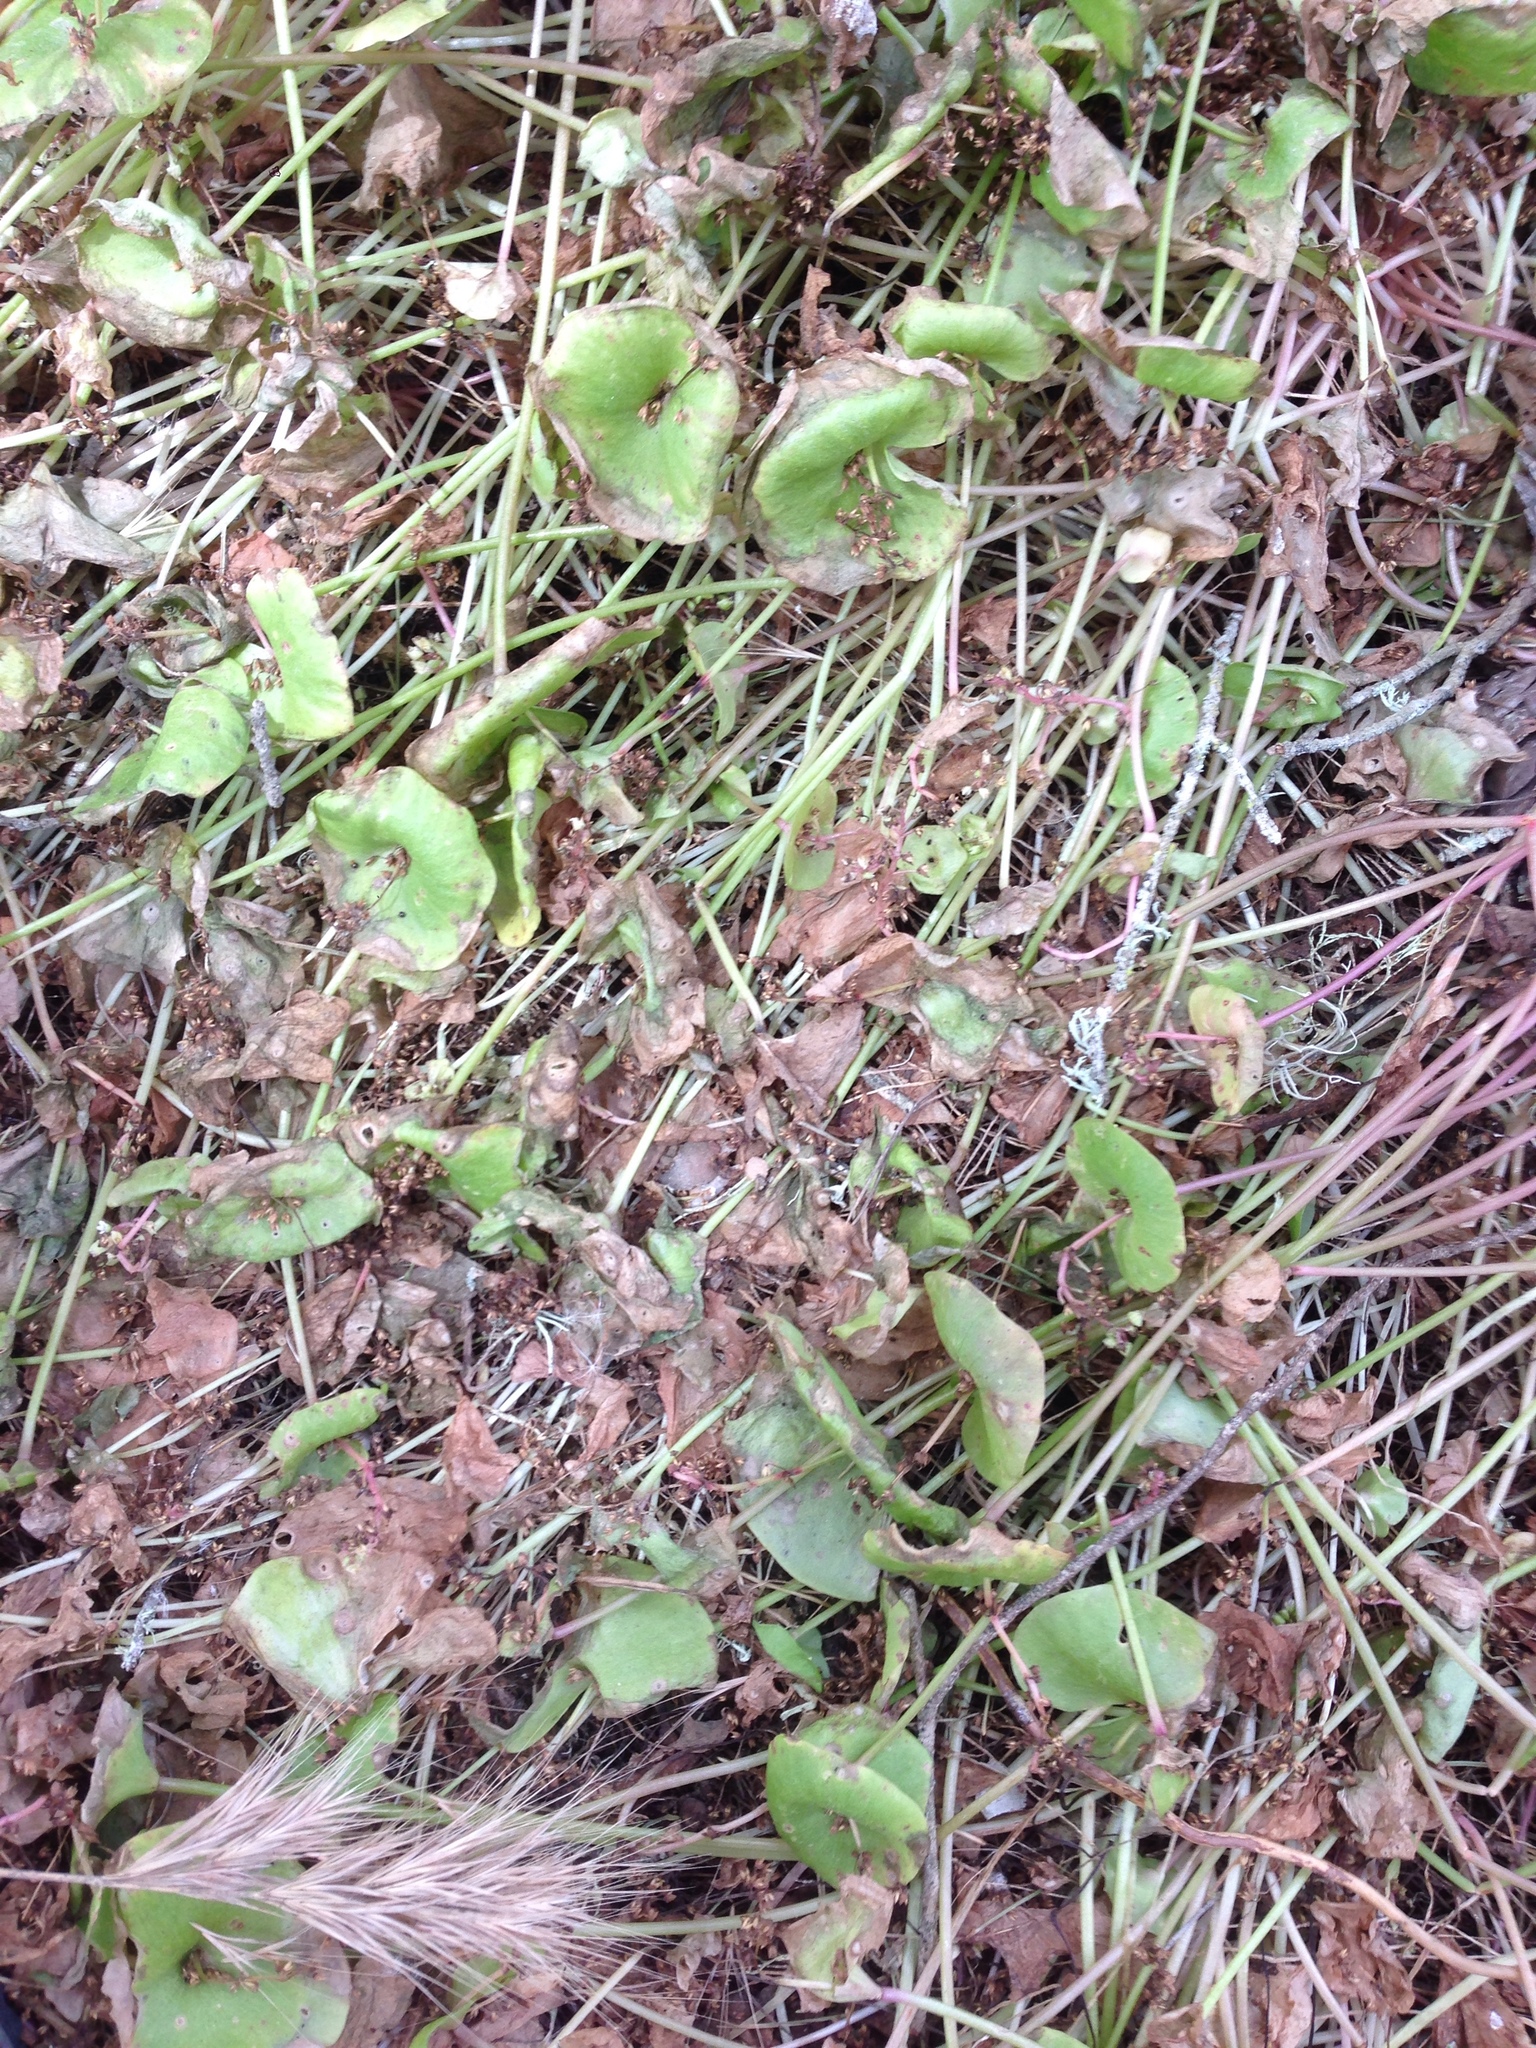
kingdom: Plantae
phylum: Tracheophyta
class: Magnoliopsida
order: Caryophyllales
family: Montiaceae
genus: Claytonia
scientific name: Claytonia perfoliata
